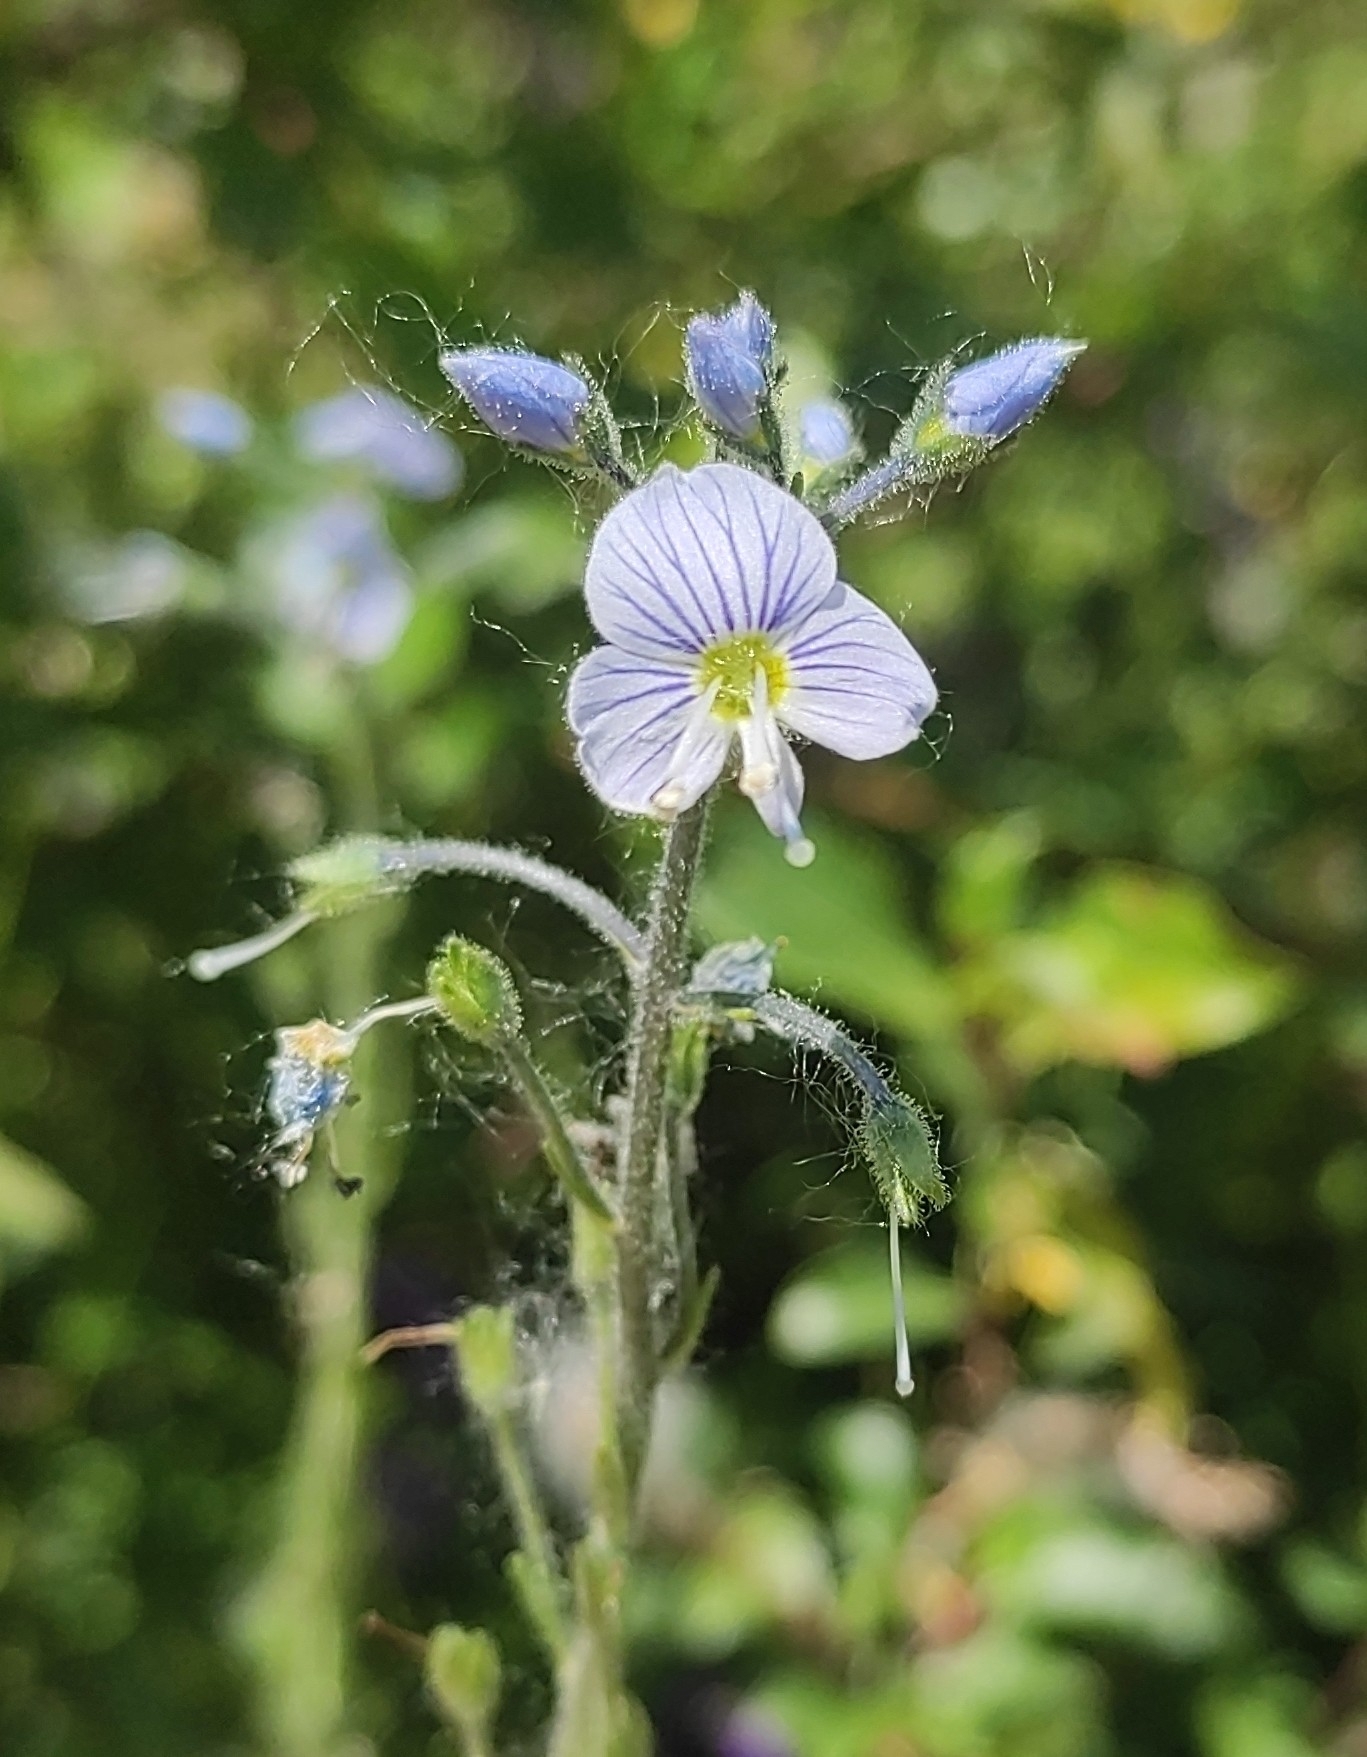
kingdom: Plantae
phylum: Tracheophyta
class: Magnoliopsida
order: Lamiales
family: Plantaginaceae
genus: Veronica
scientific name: Veronica gentianoides
